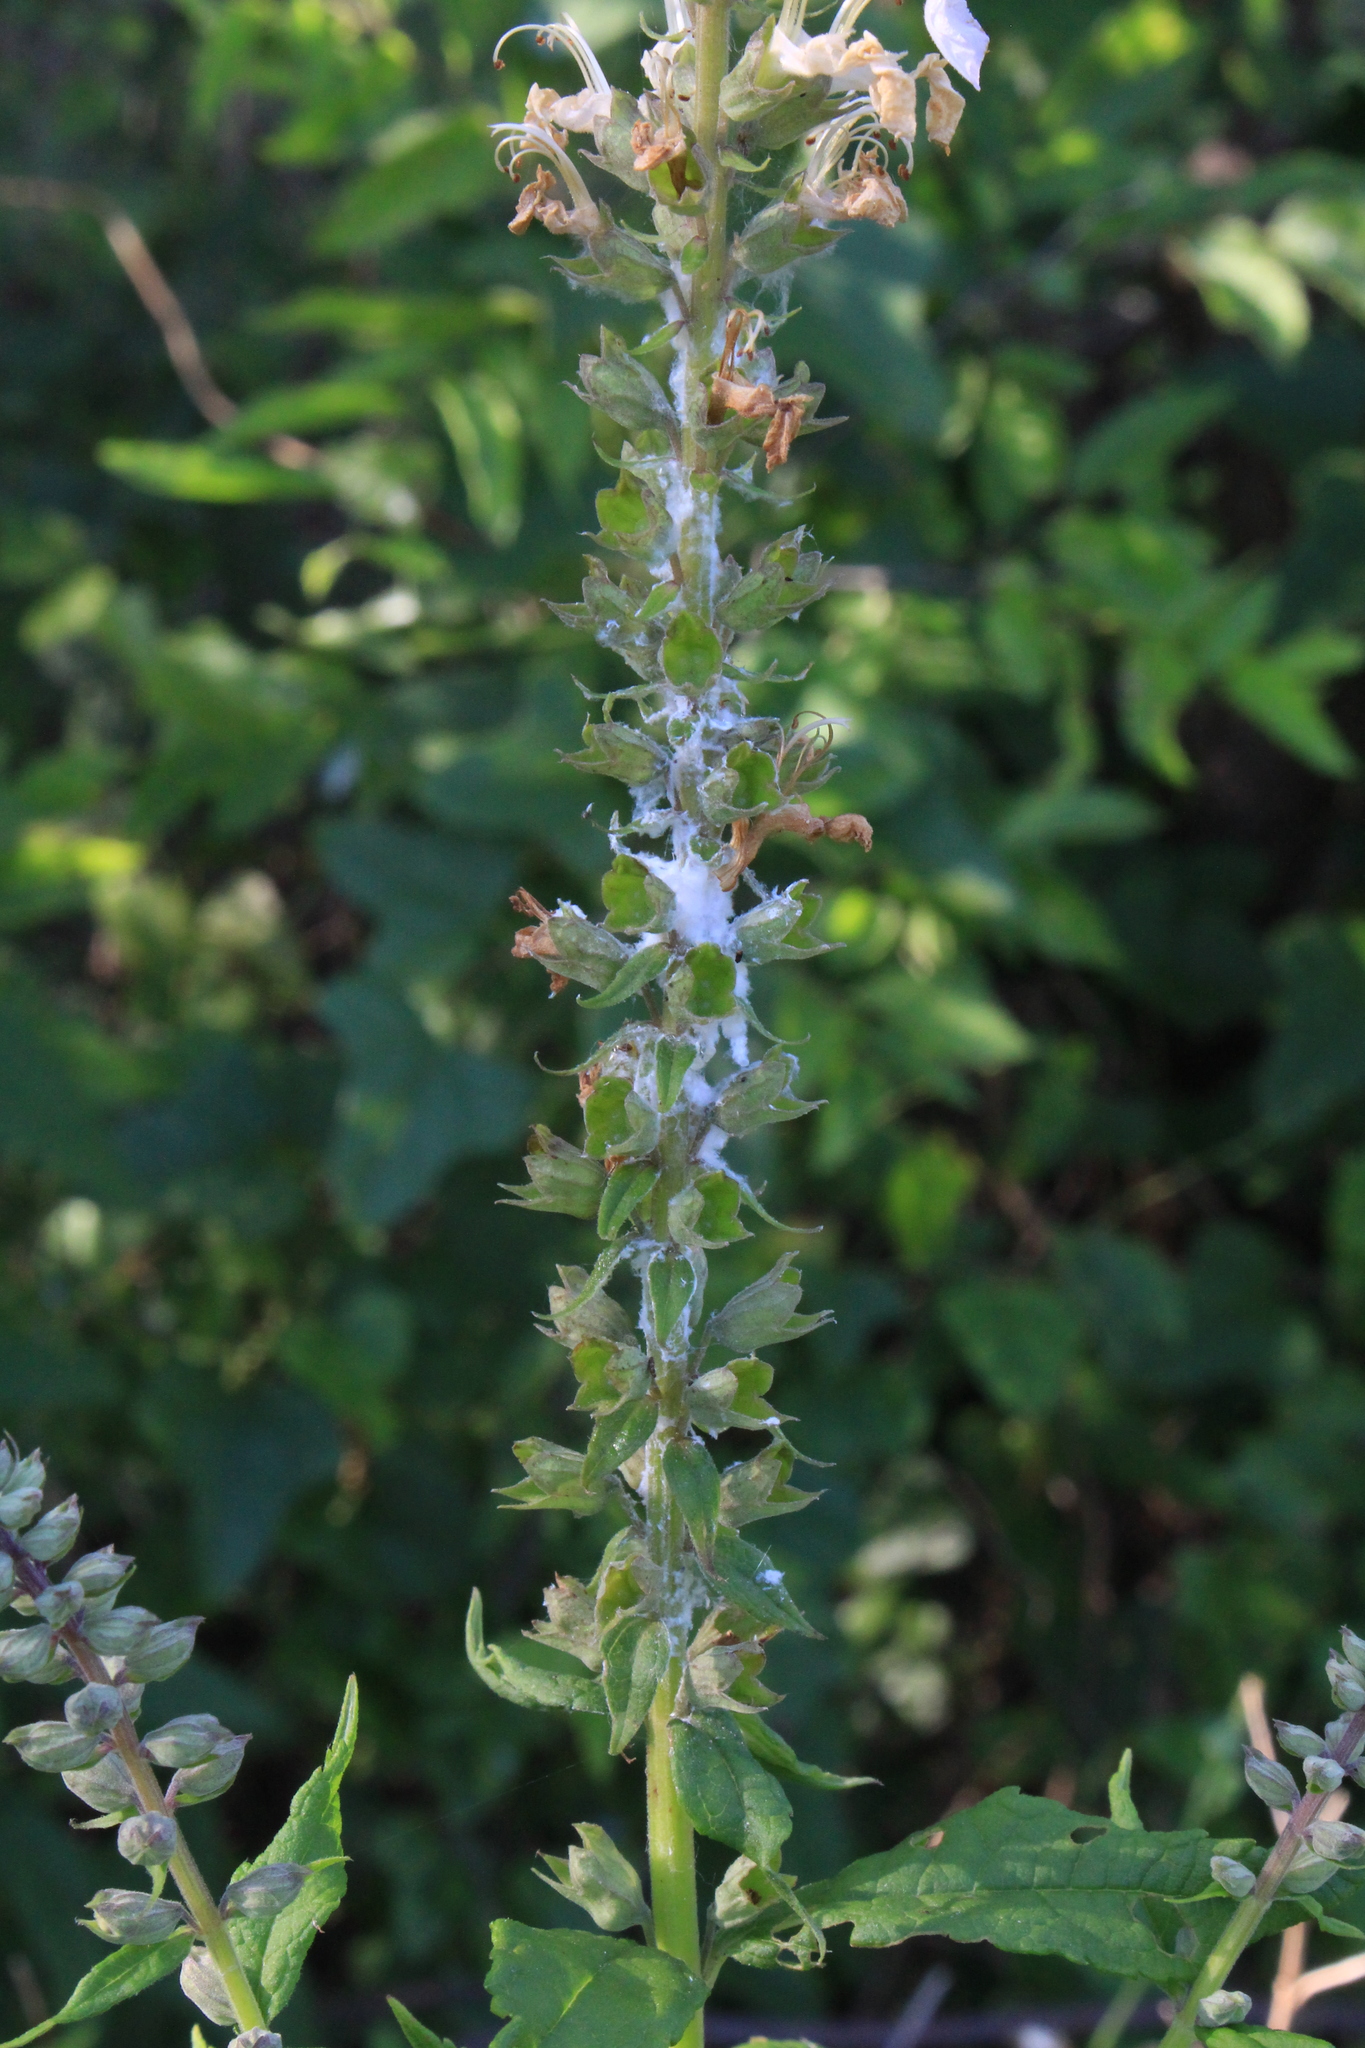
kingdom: Plantae
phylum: Tracheophyta
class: Magnoliopsida
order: Lamiales
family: Lamiaceae
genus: Teucrium
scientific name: Teucrium canadense
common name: American germander
